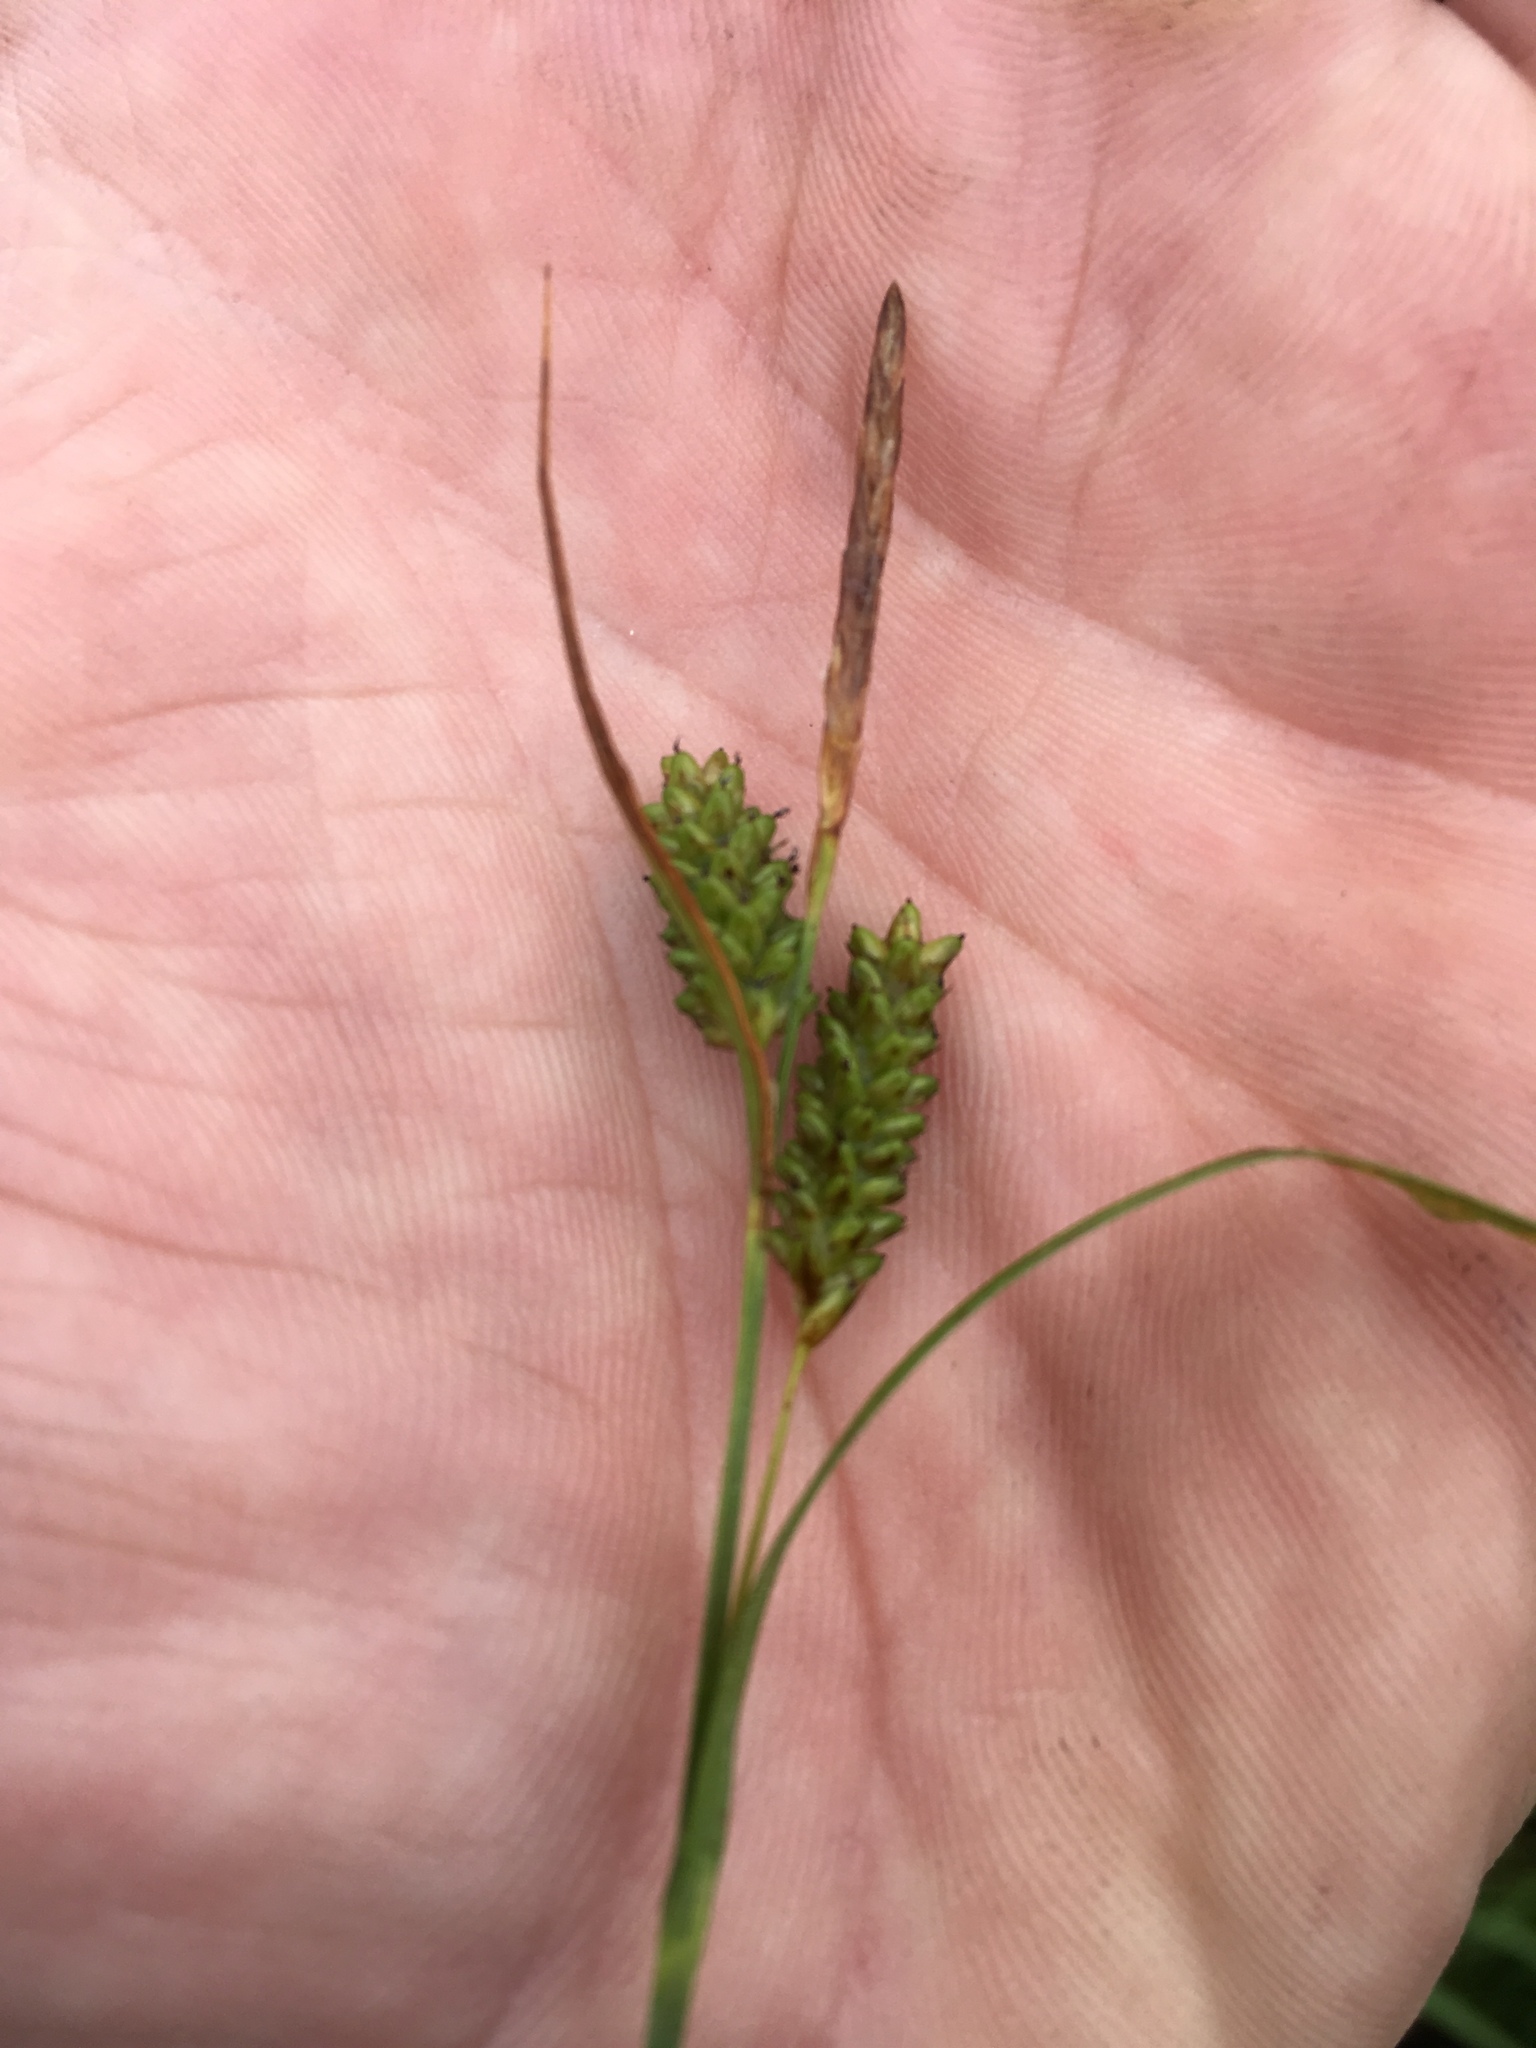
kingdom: Plantae
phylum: Tracheophyta
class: Liliopsida
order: Poales
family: Cyperaceae
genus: Carex
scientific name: Carex pallescens
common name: Pale sedge
